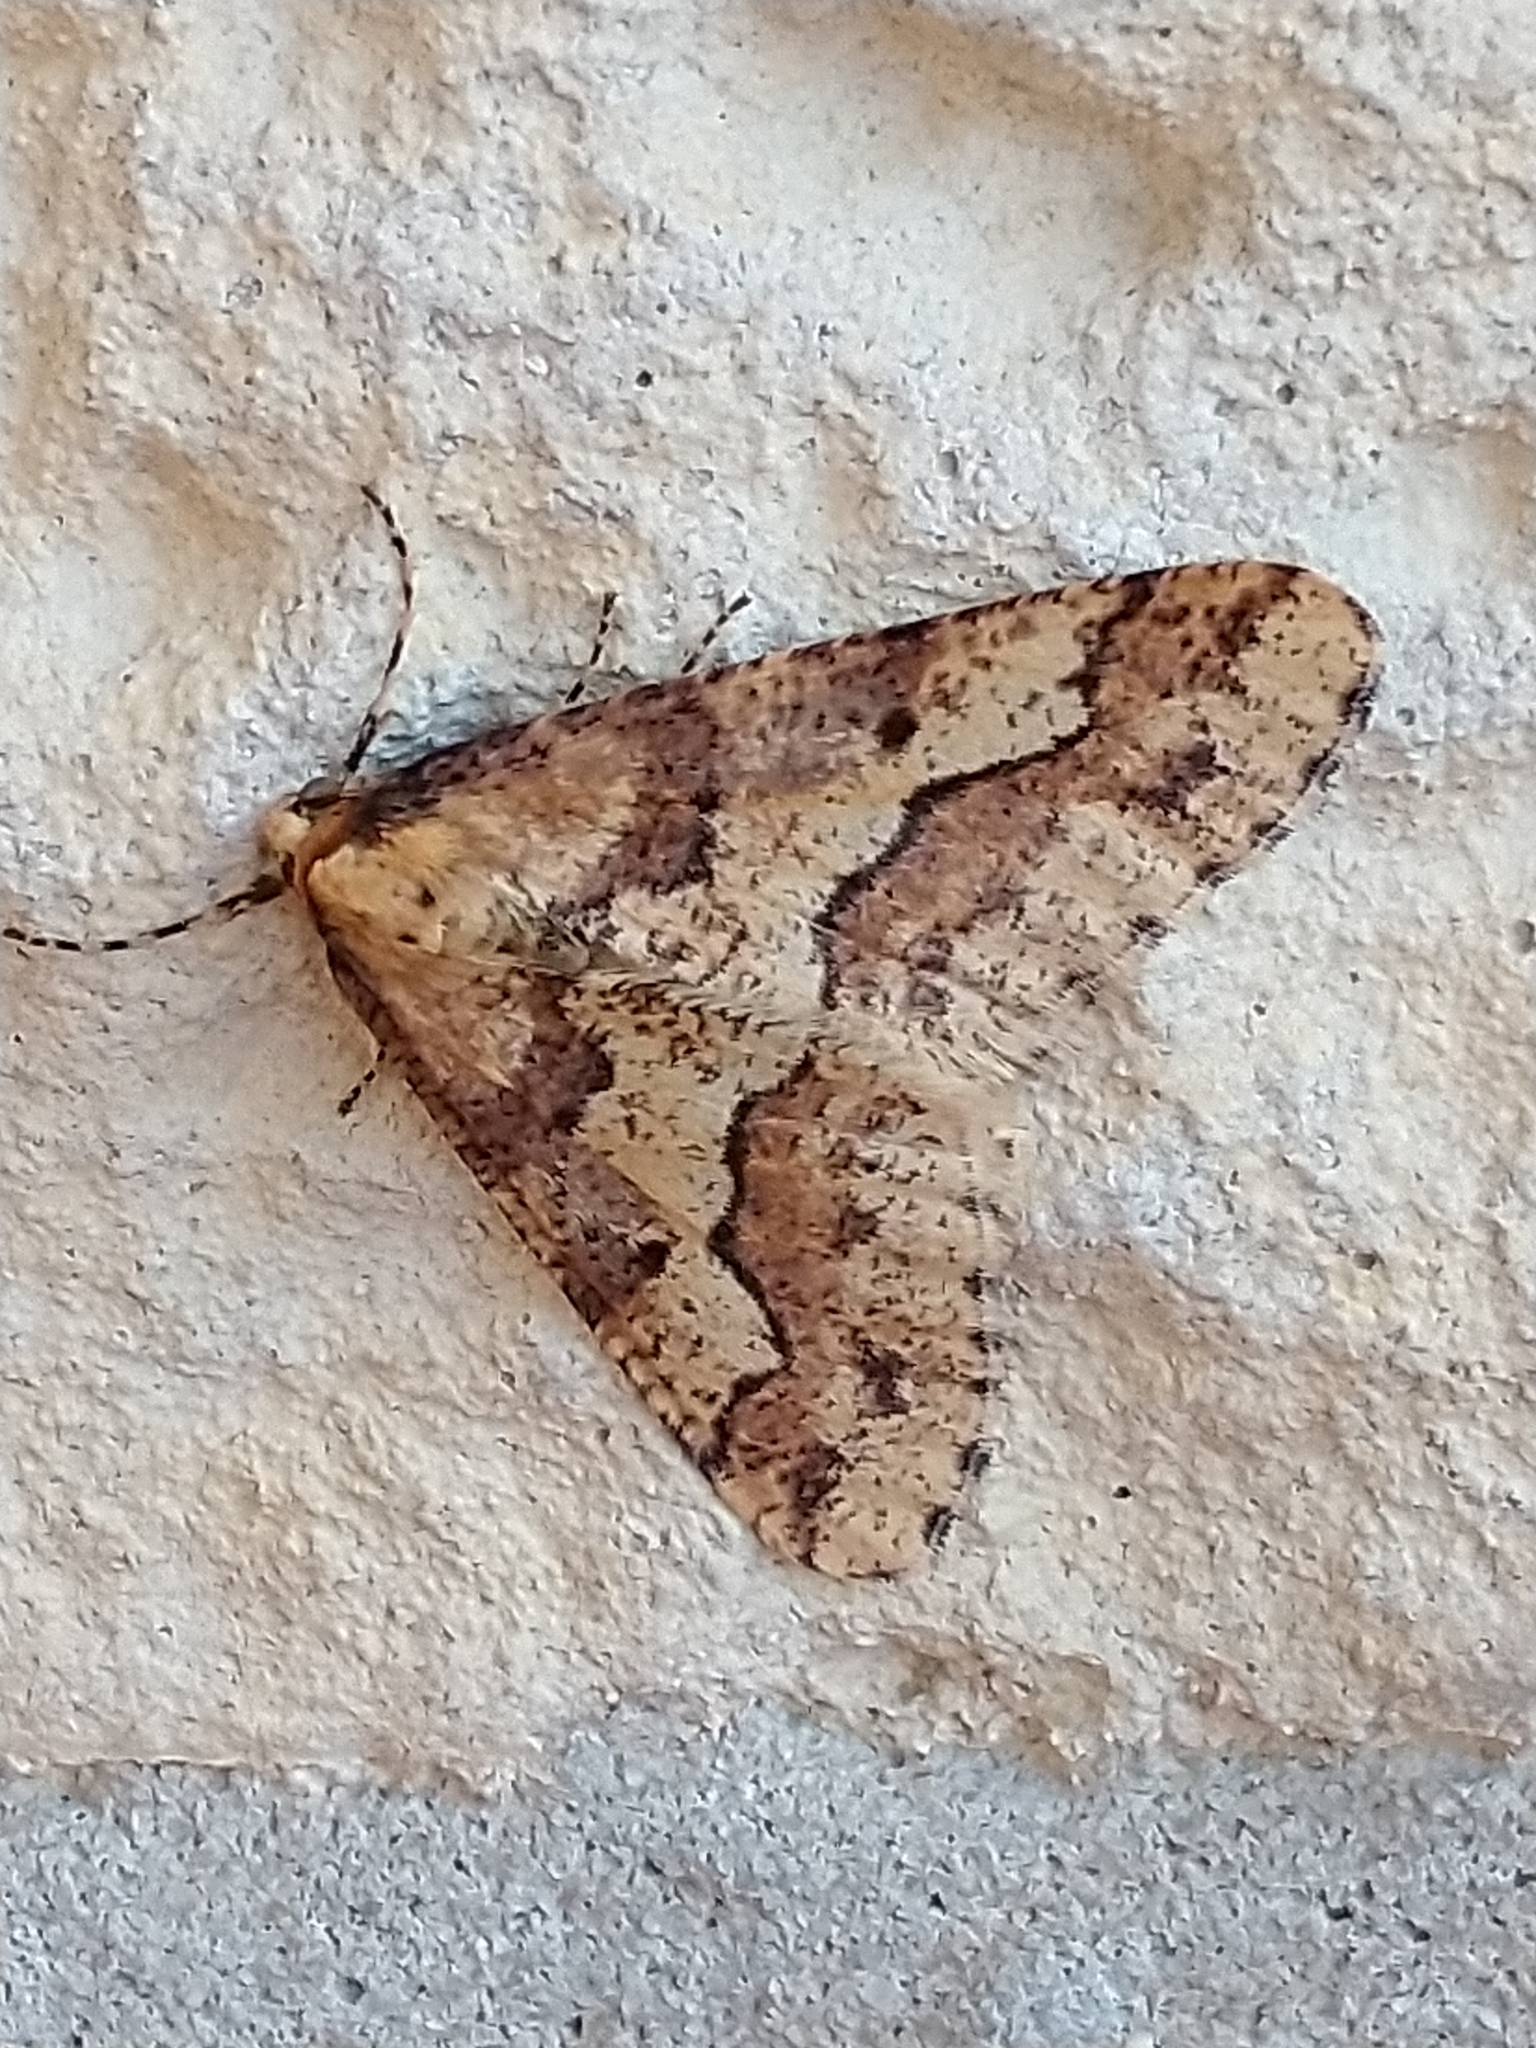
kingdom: Animalia
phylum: Arthropoda
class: Insecta
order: Lepidoptera
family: Geometridae
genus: Erannis
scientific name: Erannis defoliaria
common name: Mottled umber
